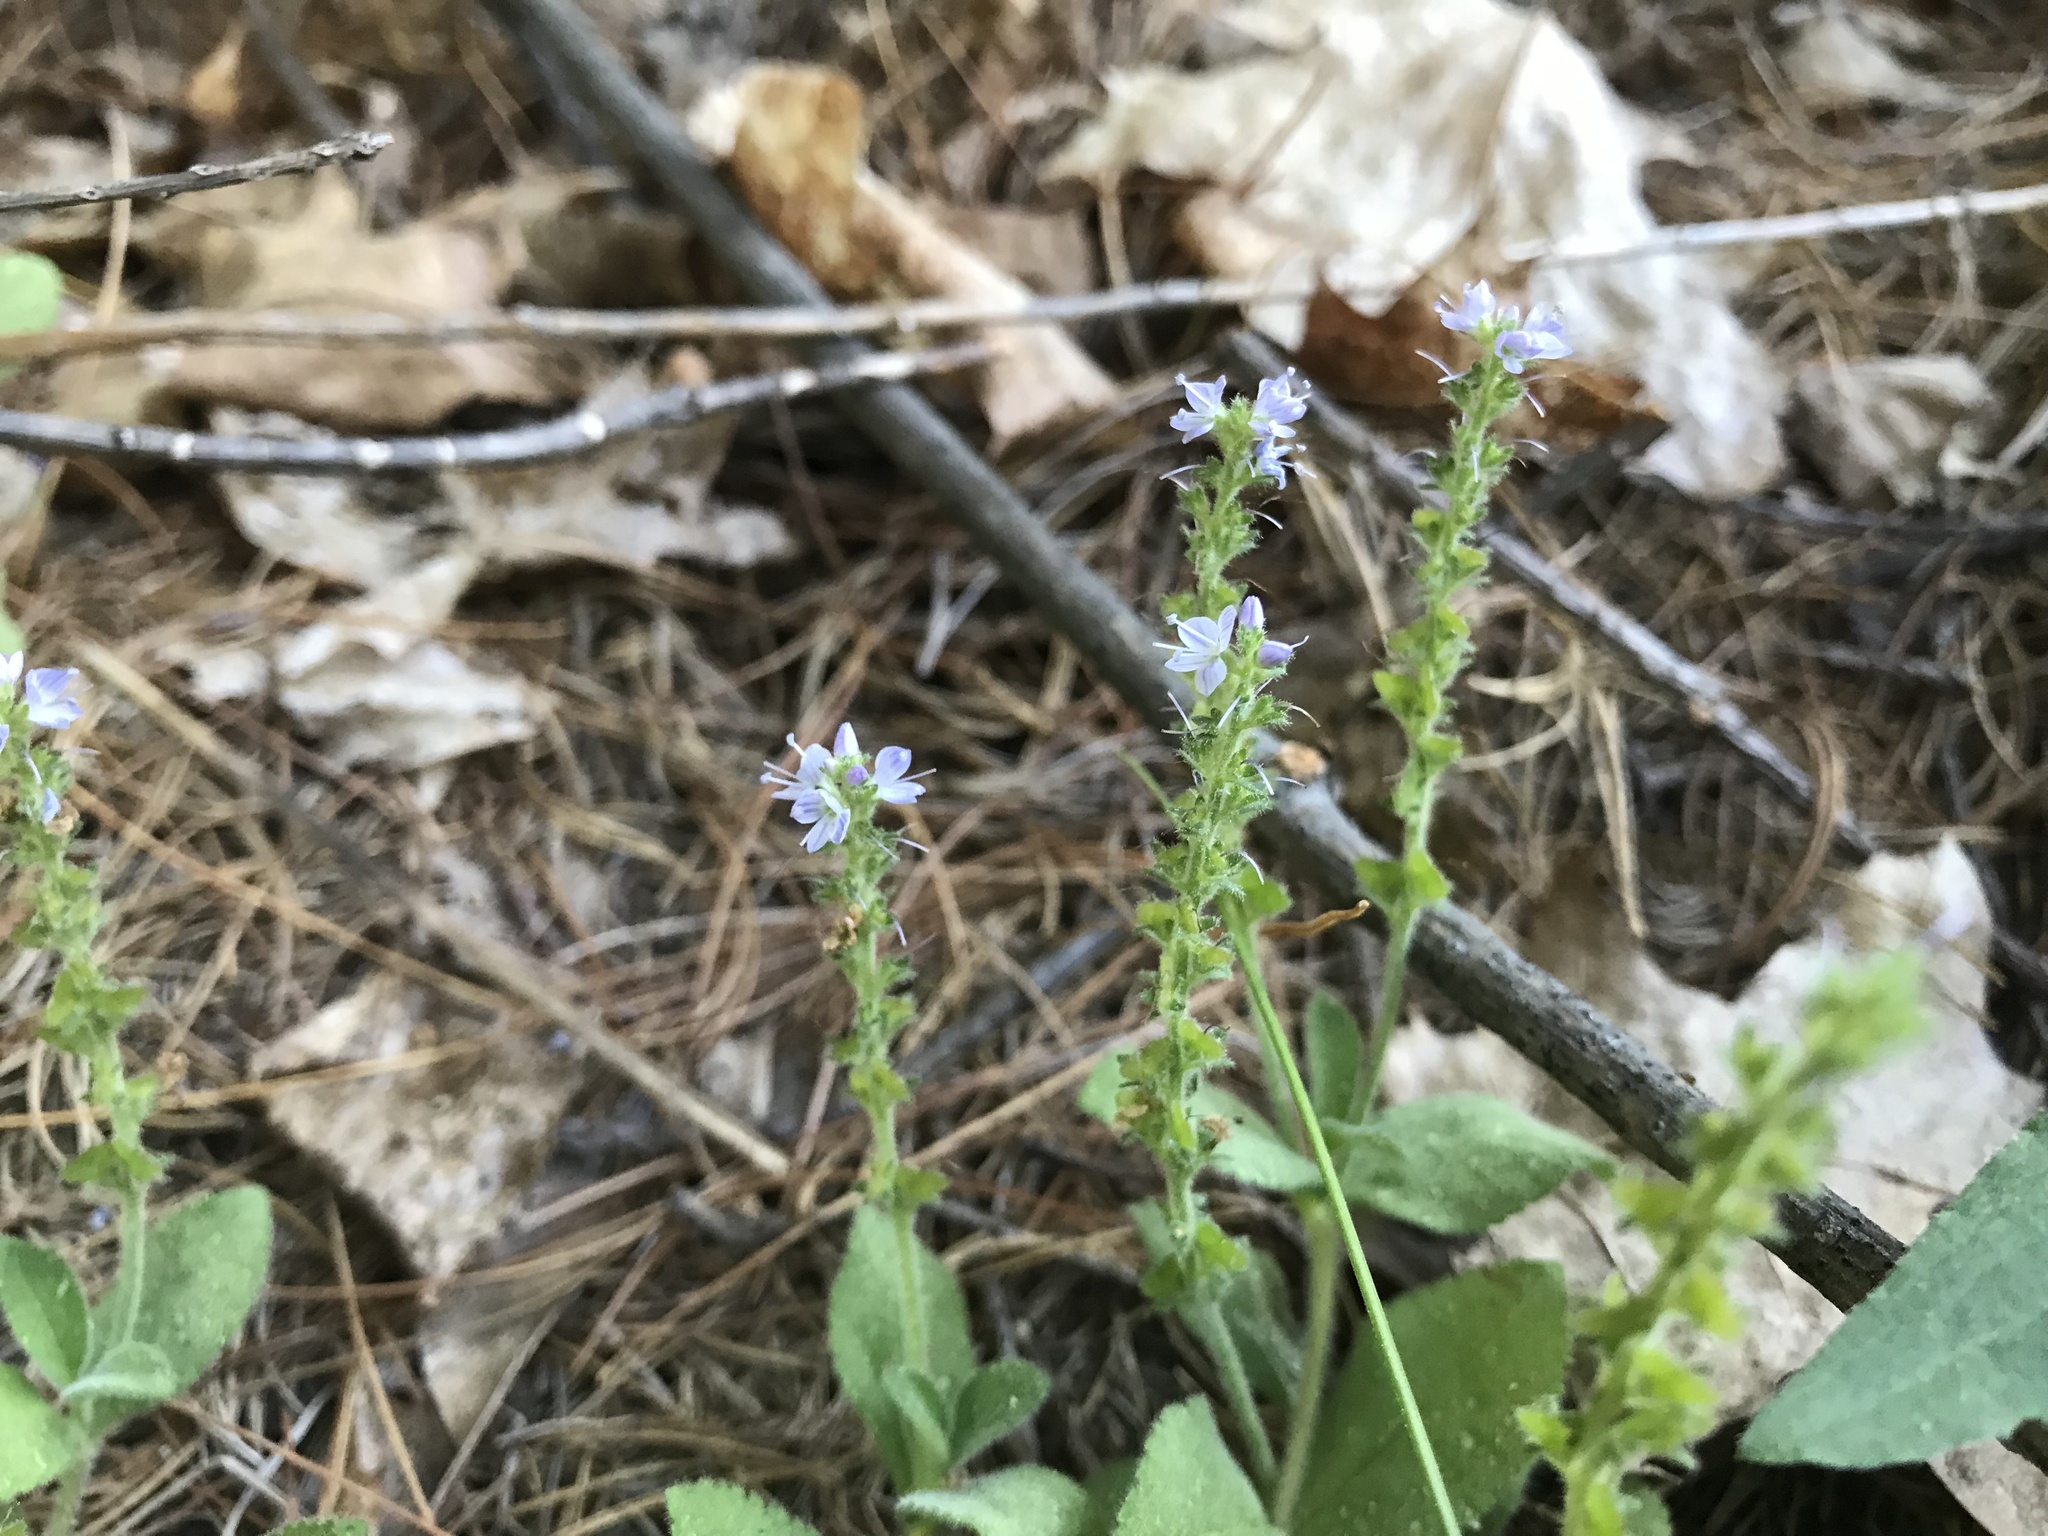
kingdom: Plantae
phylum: Tracheophyta
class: Magnoliopsida
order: Lamiales
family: Plantaginaceae
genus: Veronica
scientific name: Veronica officinalis
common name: Common speedwell
